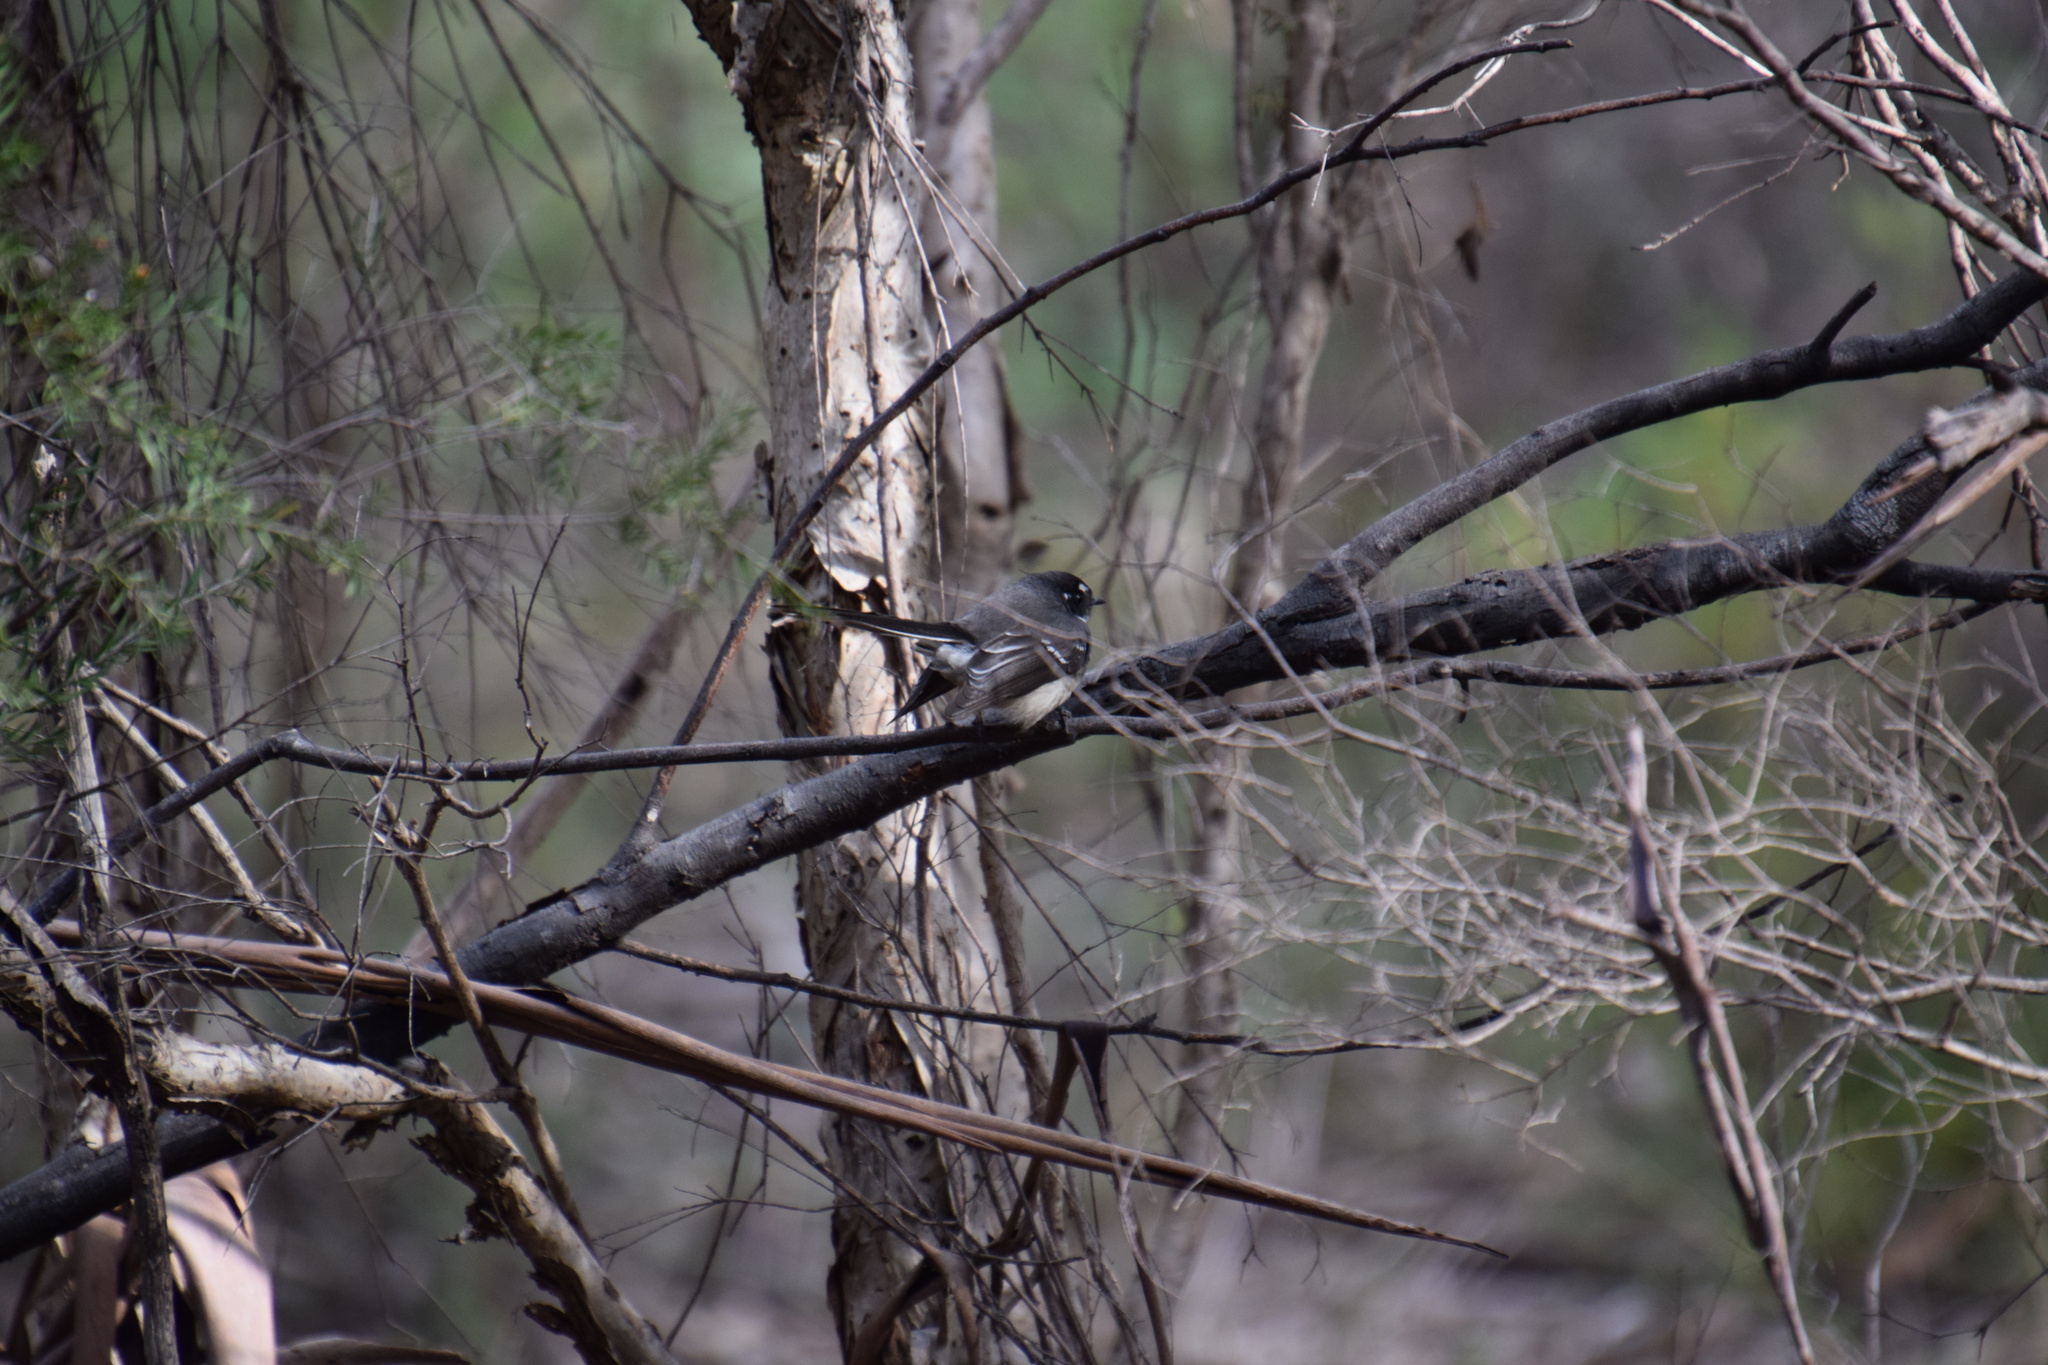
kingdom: Animalia
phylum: Chordata
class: Aves
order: Passeriformes
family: Rhipiduridae
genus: Rhipidura
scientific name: Rhipidura albiscapa
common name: Grey fantail
